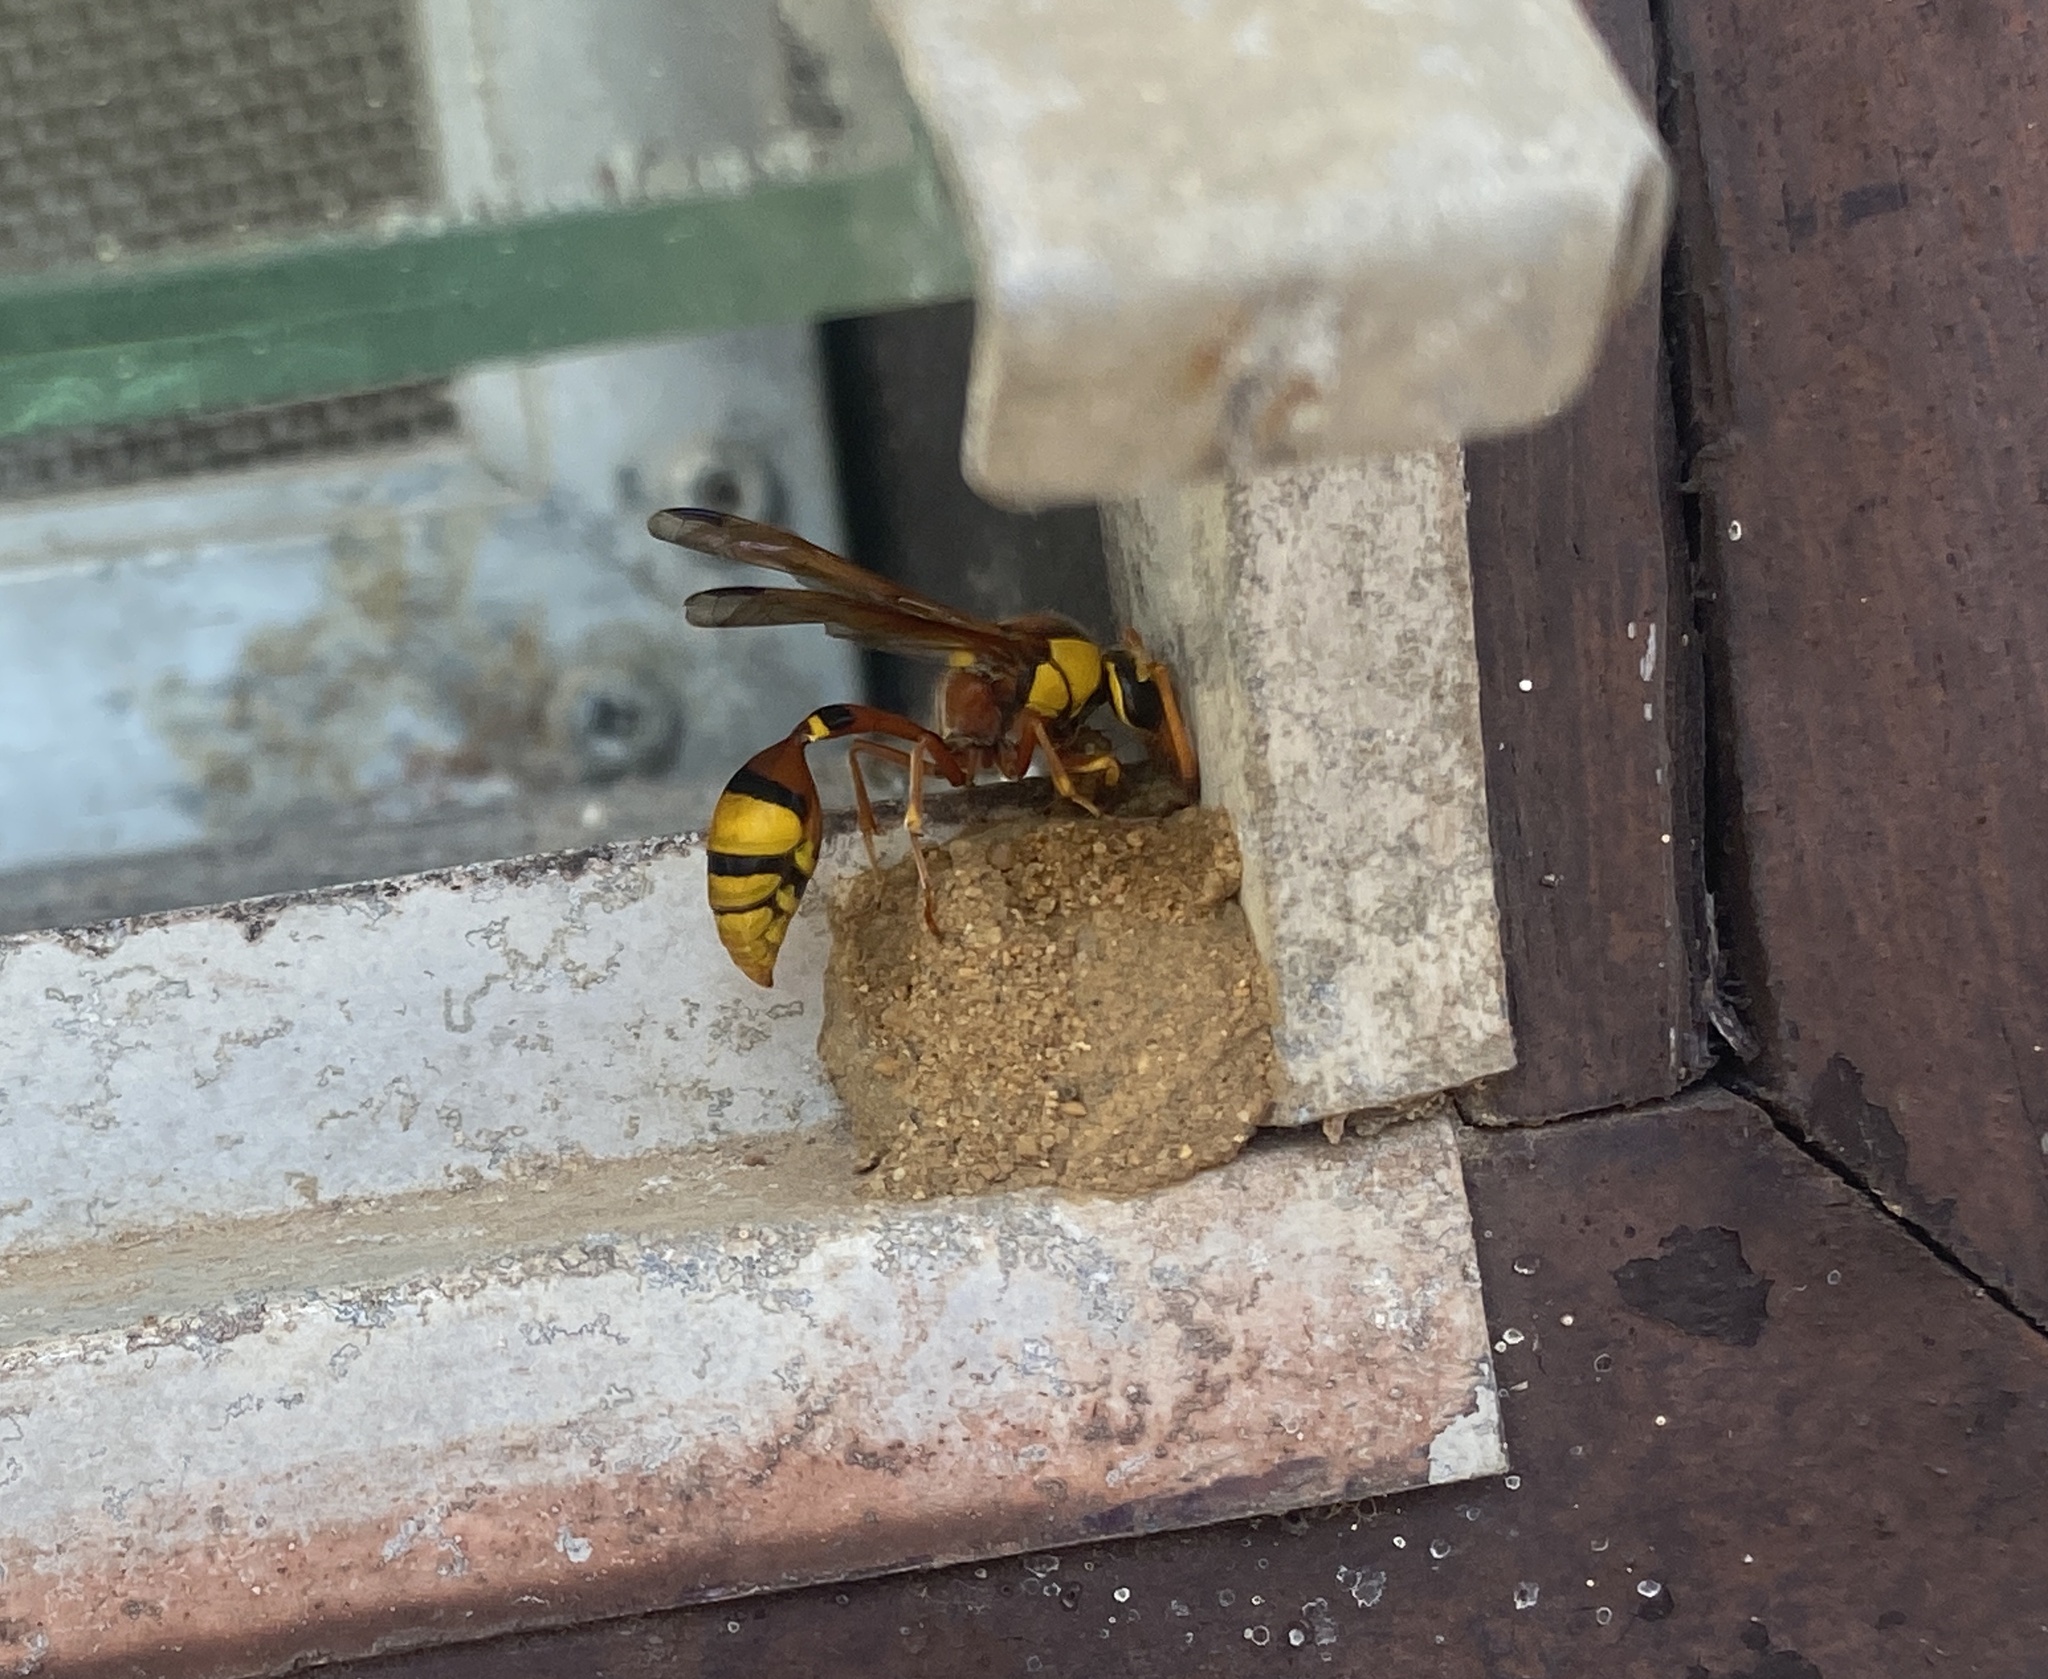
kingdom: Animalia
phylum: Arthropoda
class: Insecta
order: Hymenoptera
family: Eumenidae
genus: Delta
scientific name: Delta esuriens
